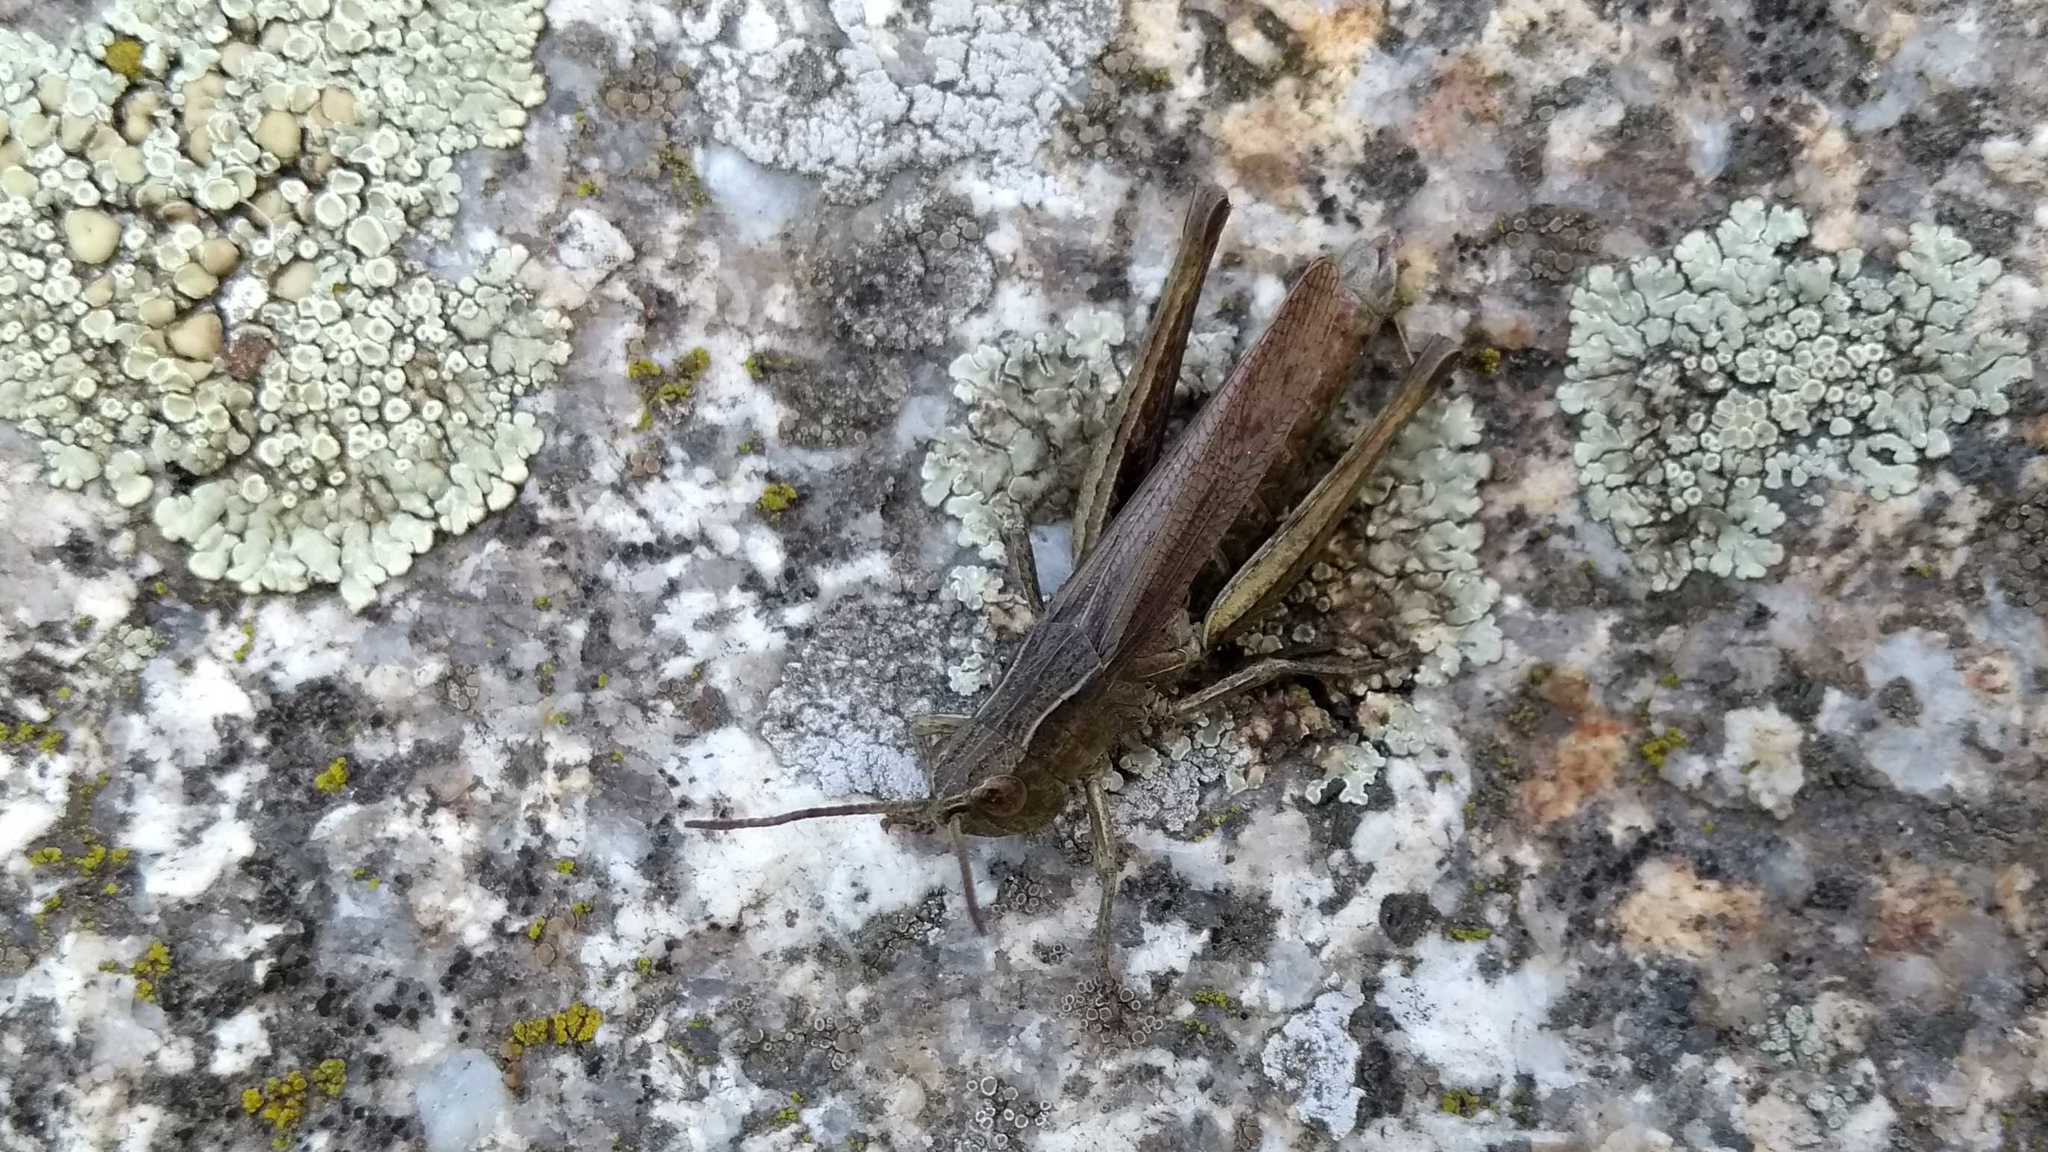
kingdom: Animalia
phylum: Arthropoda
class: Insecta
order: Orthoptera
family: Acrididae
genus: Chorthippus
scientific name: Chorthippus dorsatus
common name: Steppe grasshopper
